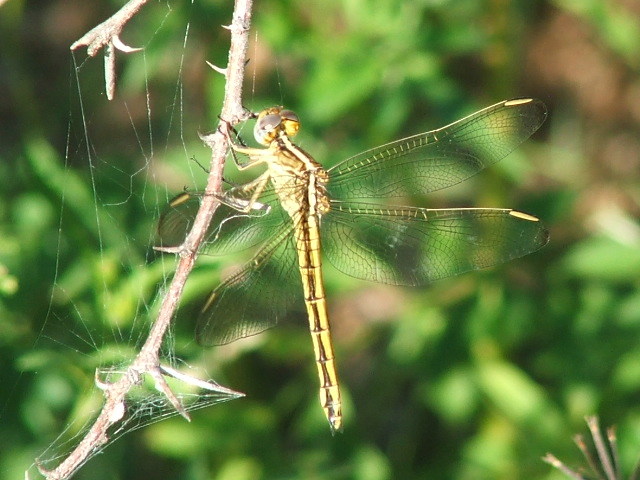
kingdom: Animalia
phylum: Arthropoda
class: Insecta
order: Odonata
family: Libellulidae
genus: Nesciothemis
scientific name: Nesciothemis farinosa
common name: Eastern blacktail
